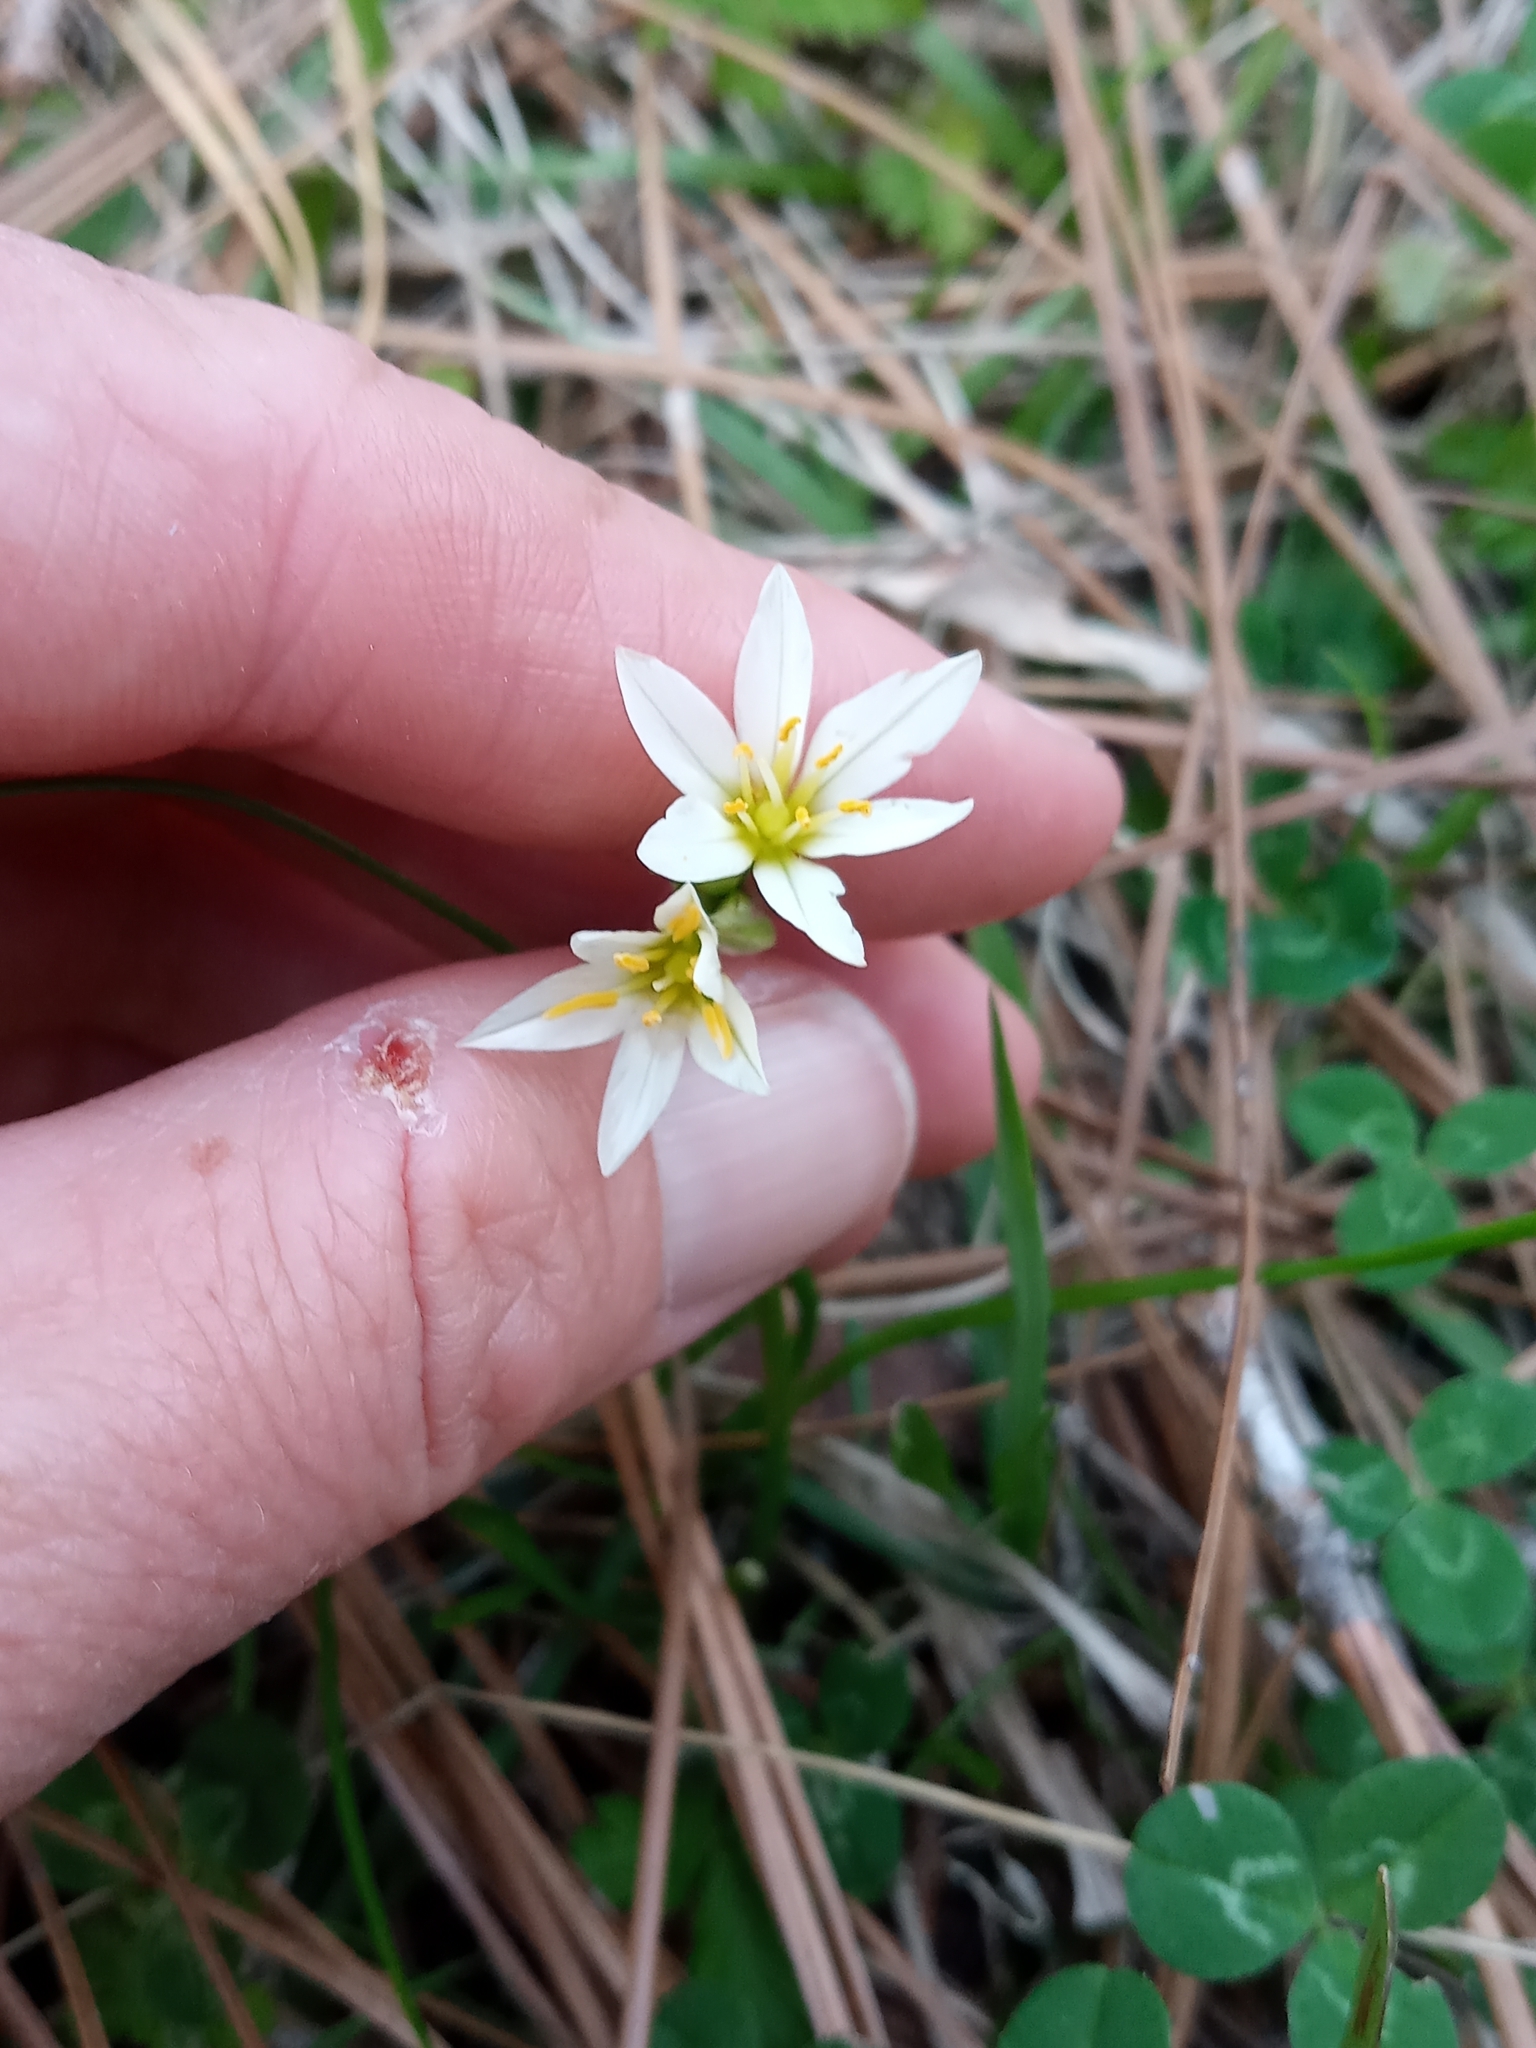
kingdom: Plantae
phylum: Tracheophyta
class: Liliopsida
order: Asparagales
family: Amaryllidaceae
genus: Nothoscordum
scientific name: Nothoscordum bivalve
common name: Crow-poison
